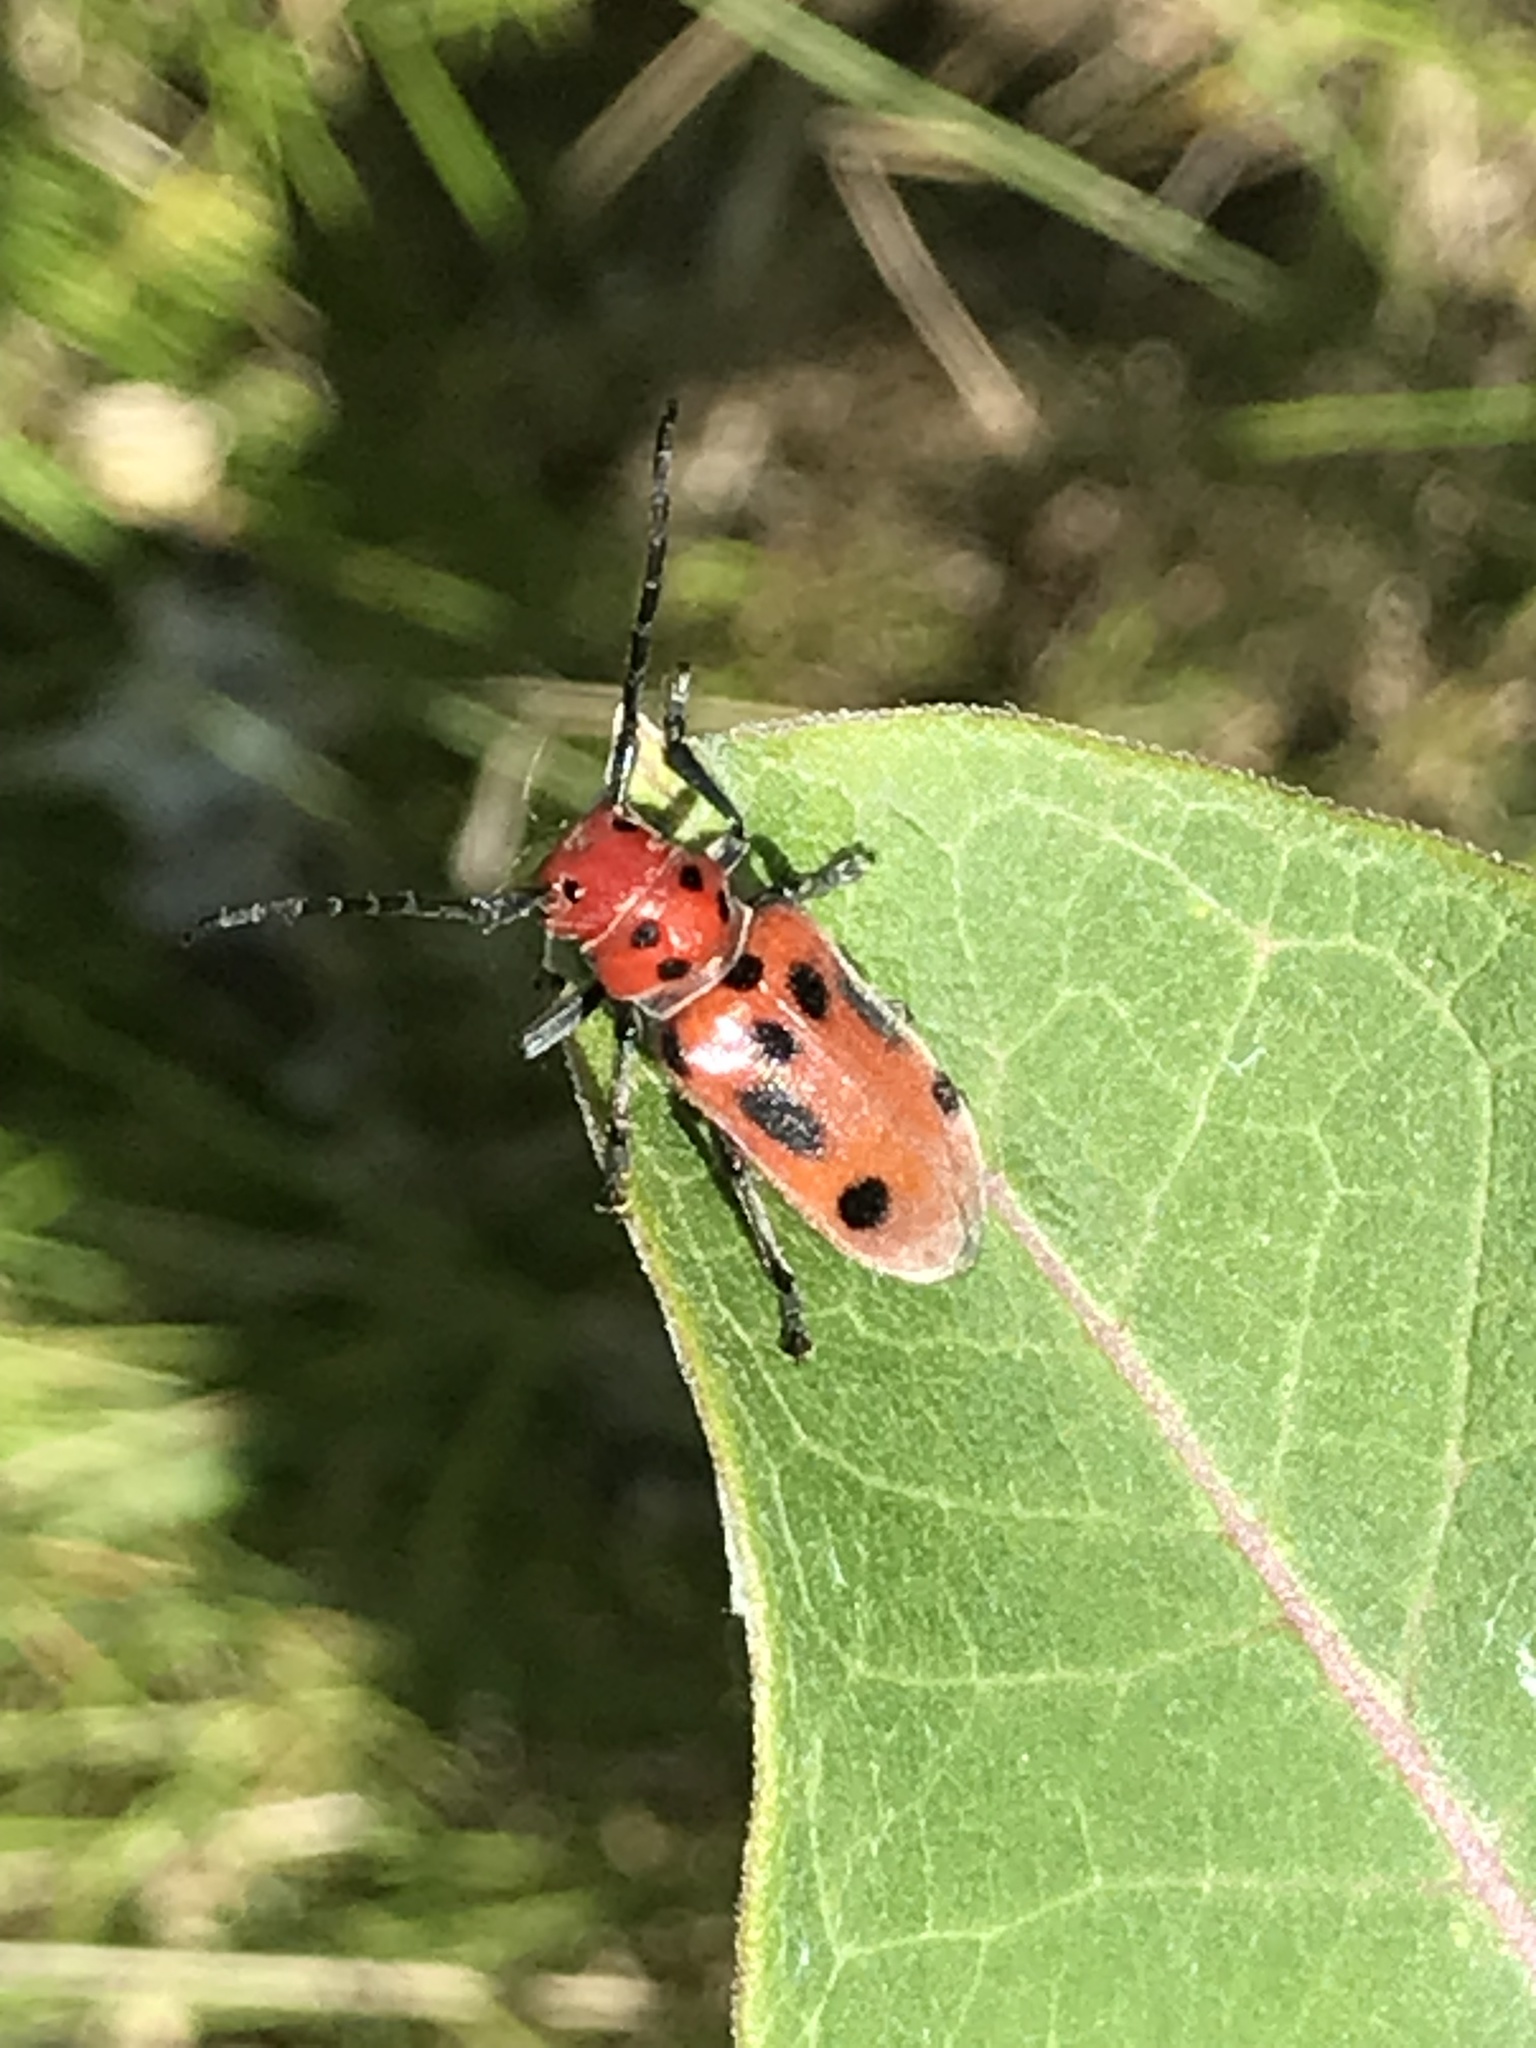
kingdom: Animalia
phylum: Arthropoda
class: Insecta
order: Coleoptera
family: Cerambycidae
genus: Tetraopes
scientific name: Tetraopes tetrophthalmus
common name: Red milkweed beetle
